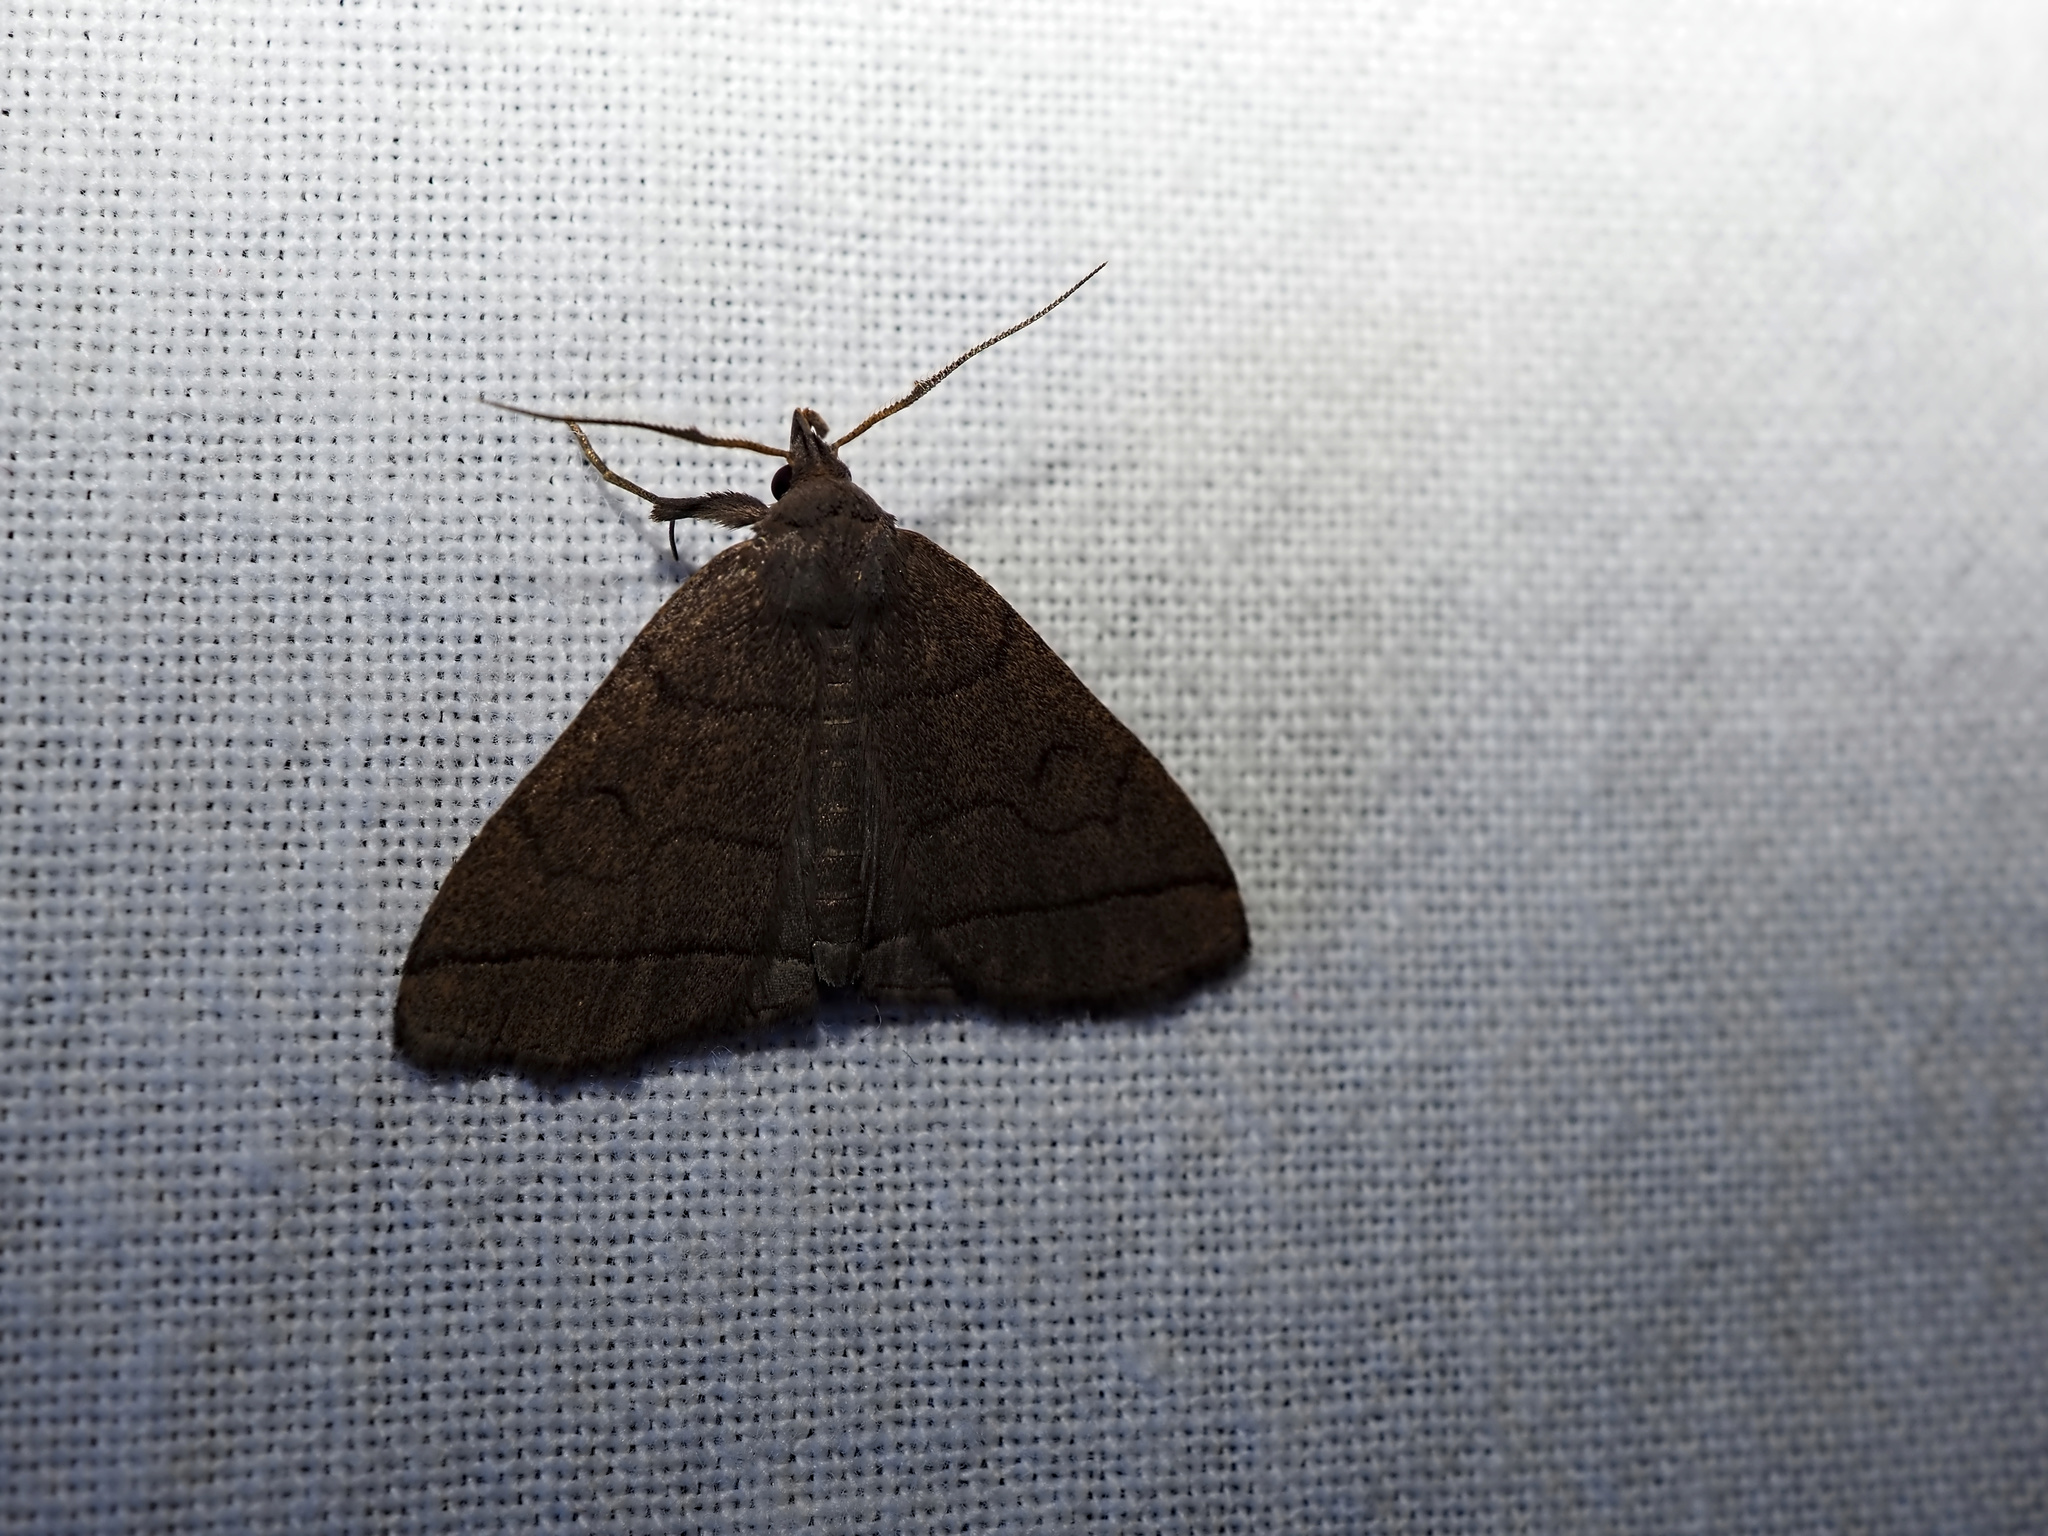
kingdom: Animalia
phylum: Arthropoda
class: Insecta
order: Lepidoptera
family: Erebidae
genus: Herminia
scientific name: Herminia tarsipennalis
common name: Fan-foot
